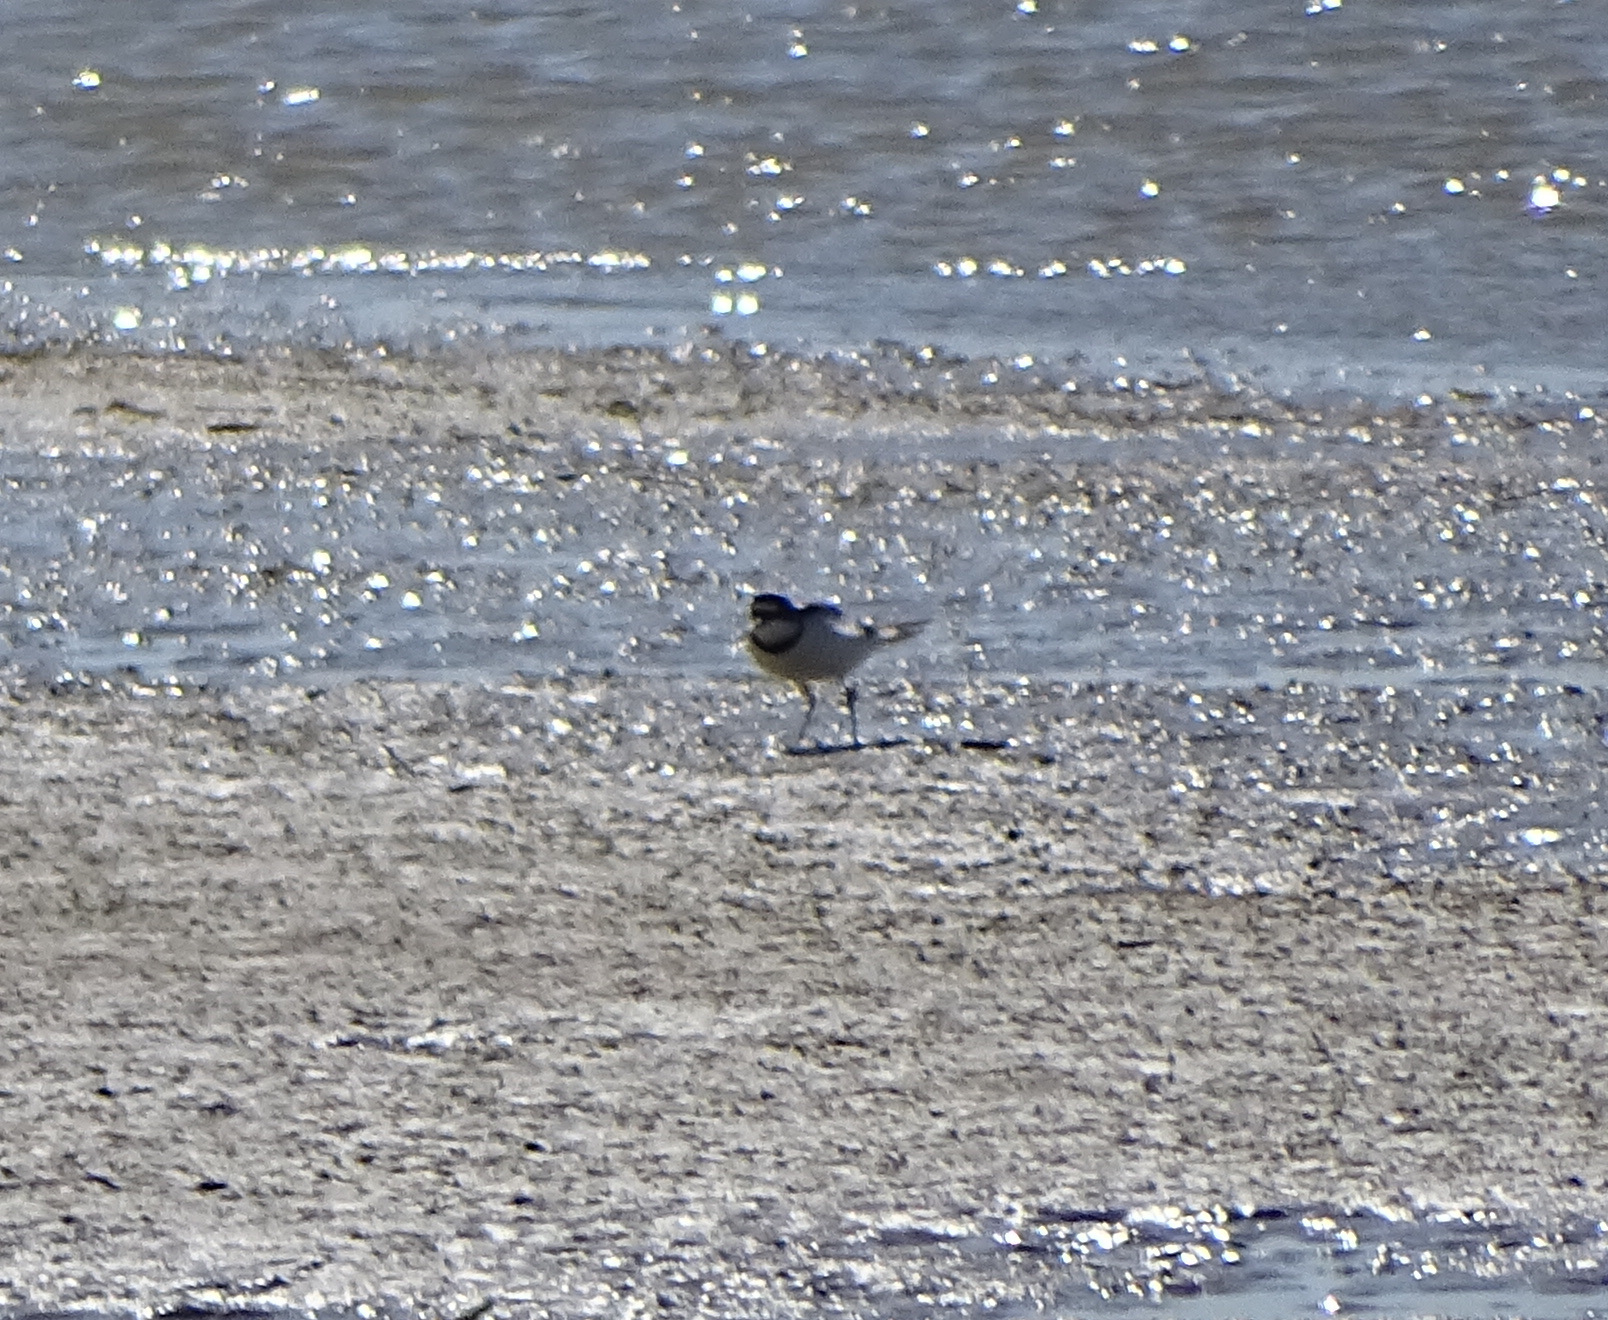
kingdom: Animalia
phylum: Chordata
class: Aves
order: Charadriiformes
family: Charadriidae
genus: Charadrius
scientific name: Charadrius dubius
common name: Little ringed plover
